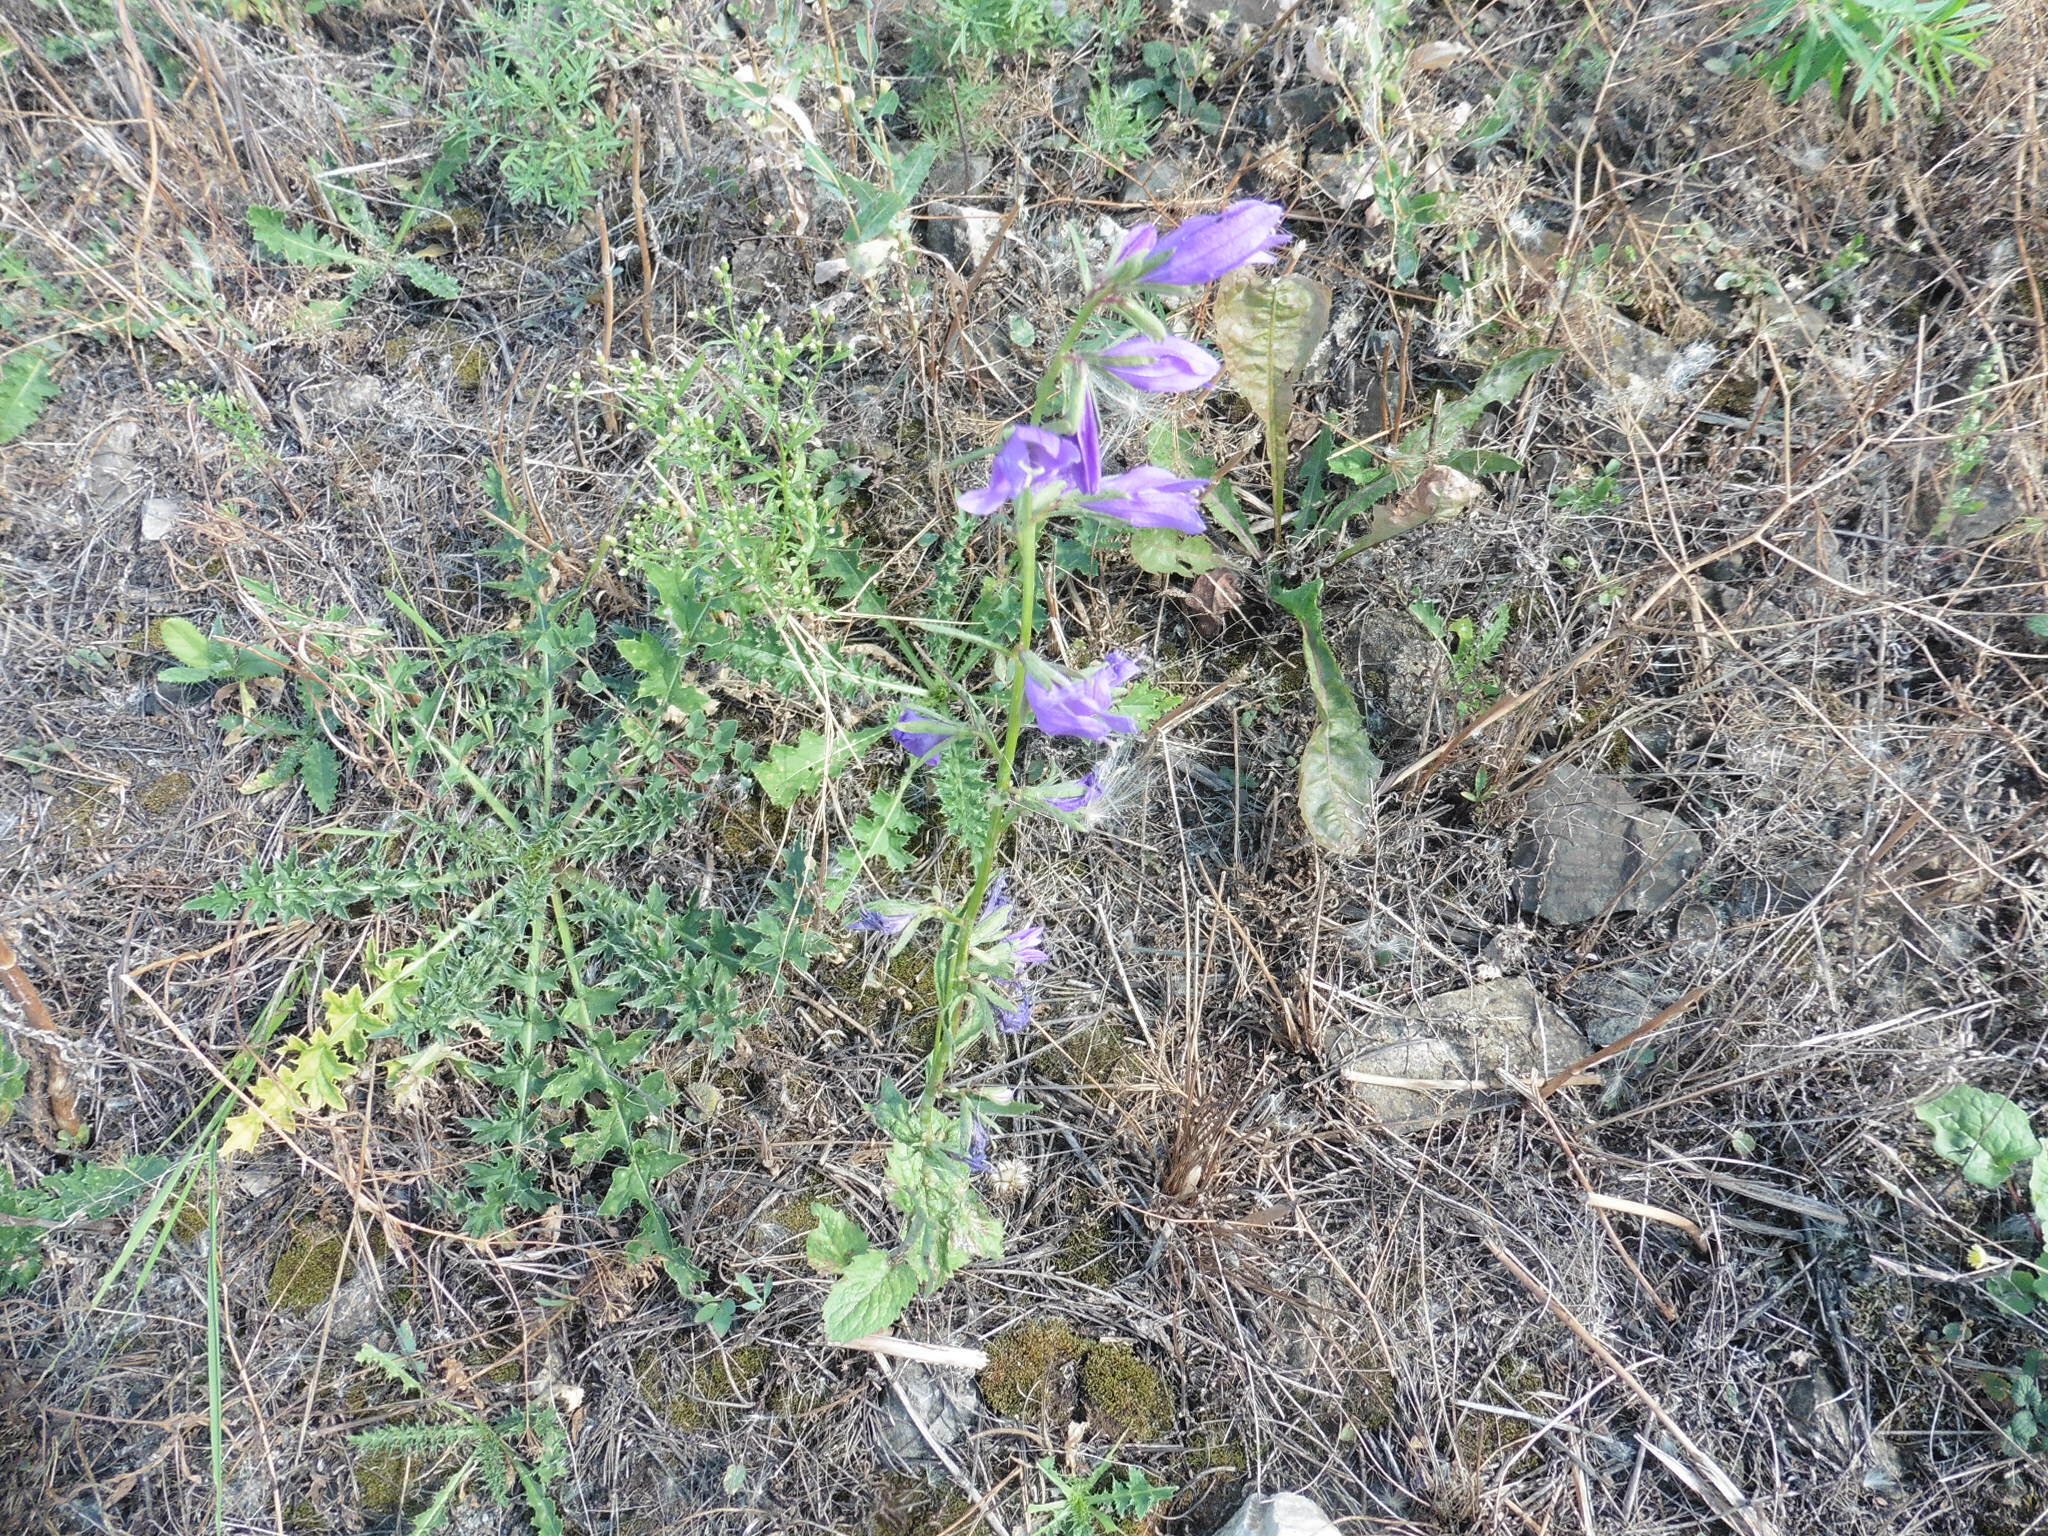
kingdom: Plantae
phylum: Tracheophyta
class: Magnoliopsida
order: Asterales
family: Campanulaceae
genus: Campanula
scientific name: Campanula rapunculoides
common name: Creeping bellflower
